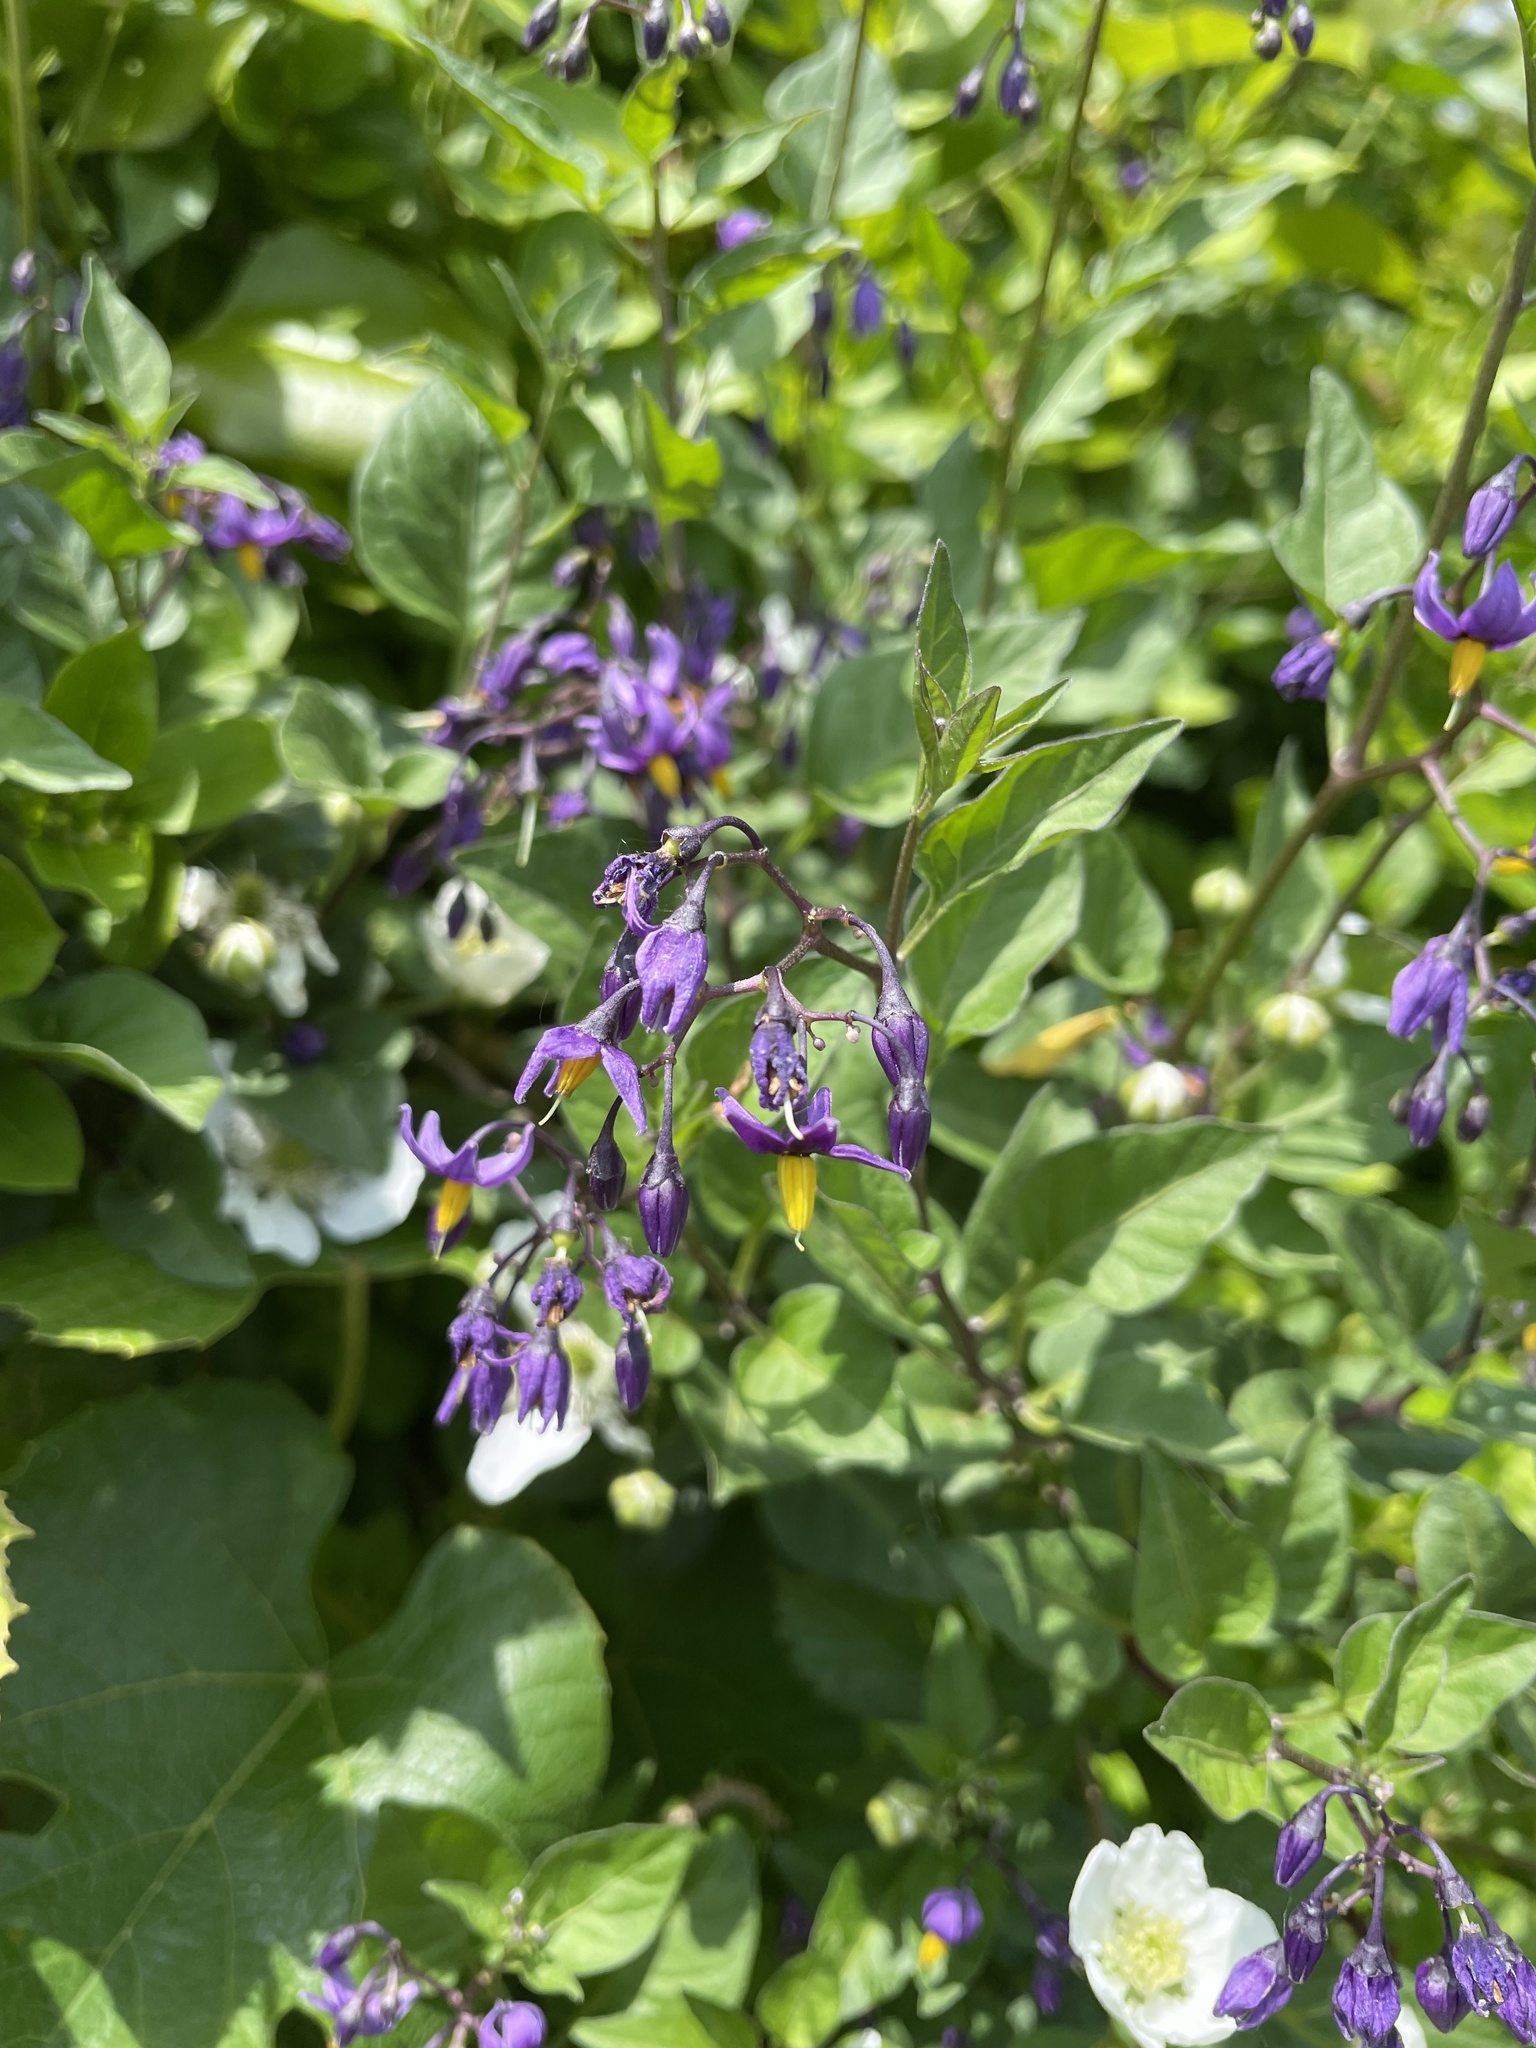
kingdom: Plantae
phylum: Tracheophyta
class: Magnoliopsida
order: Solanales
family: Solanaceae
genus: Solanum
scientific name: Solanum dulcamara
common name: Climbing nightshade
